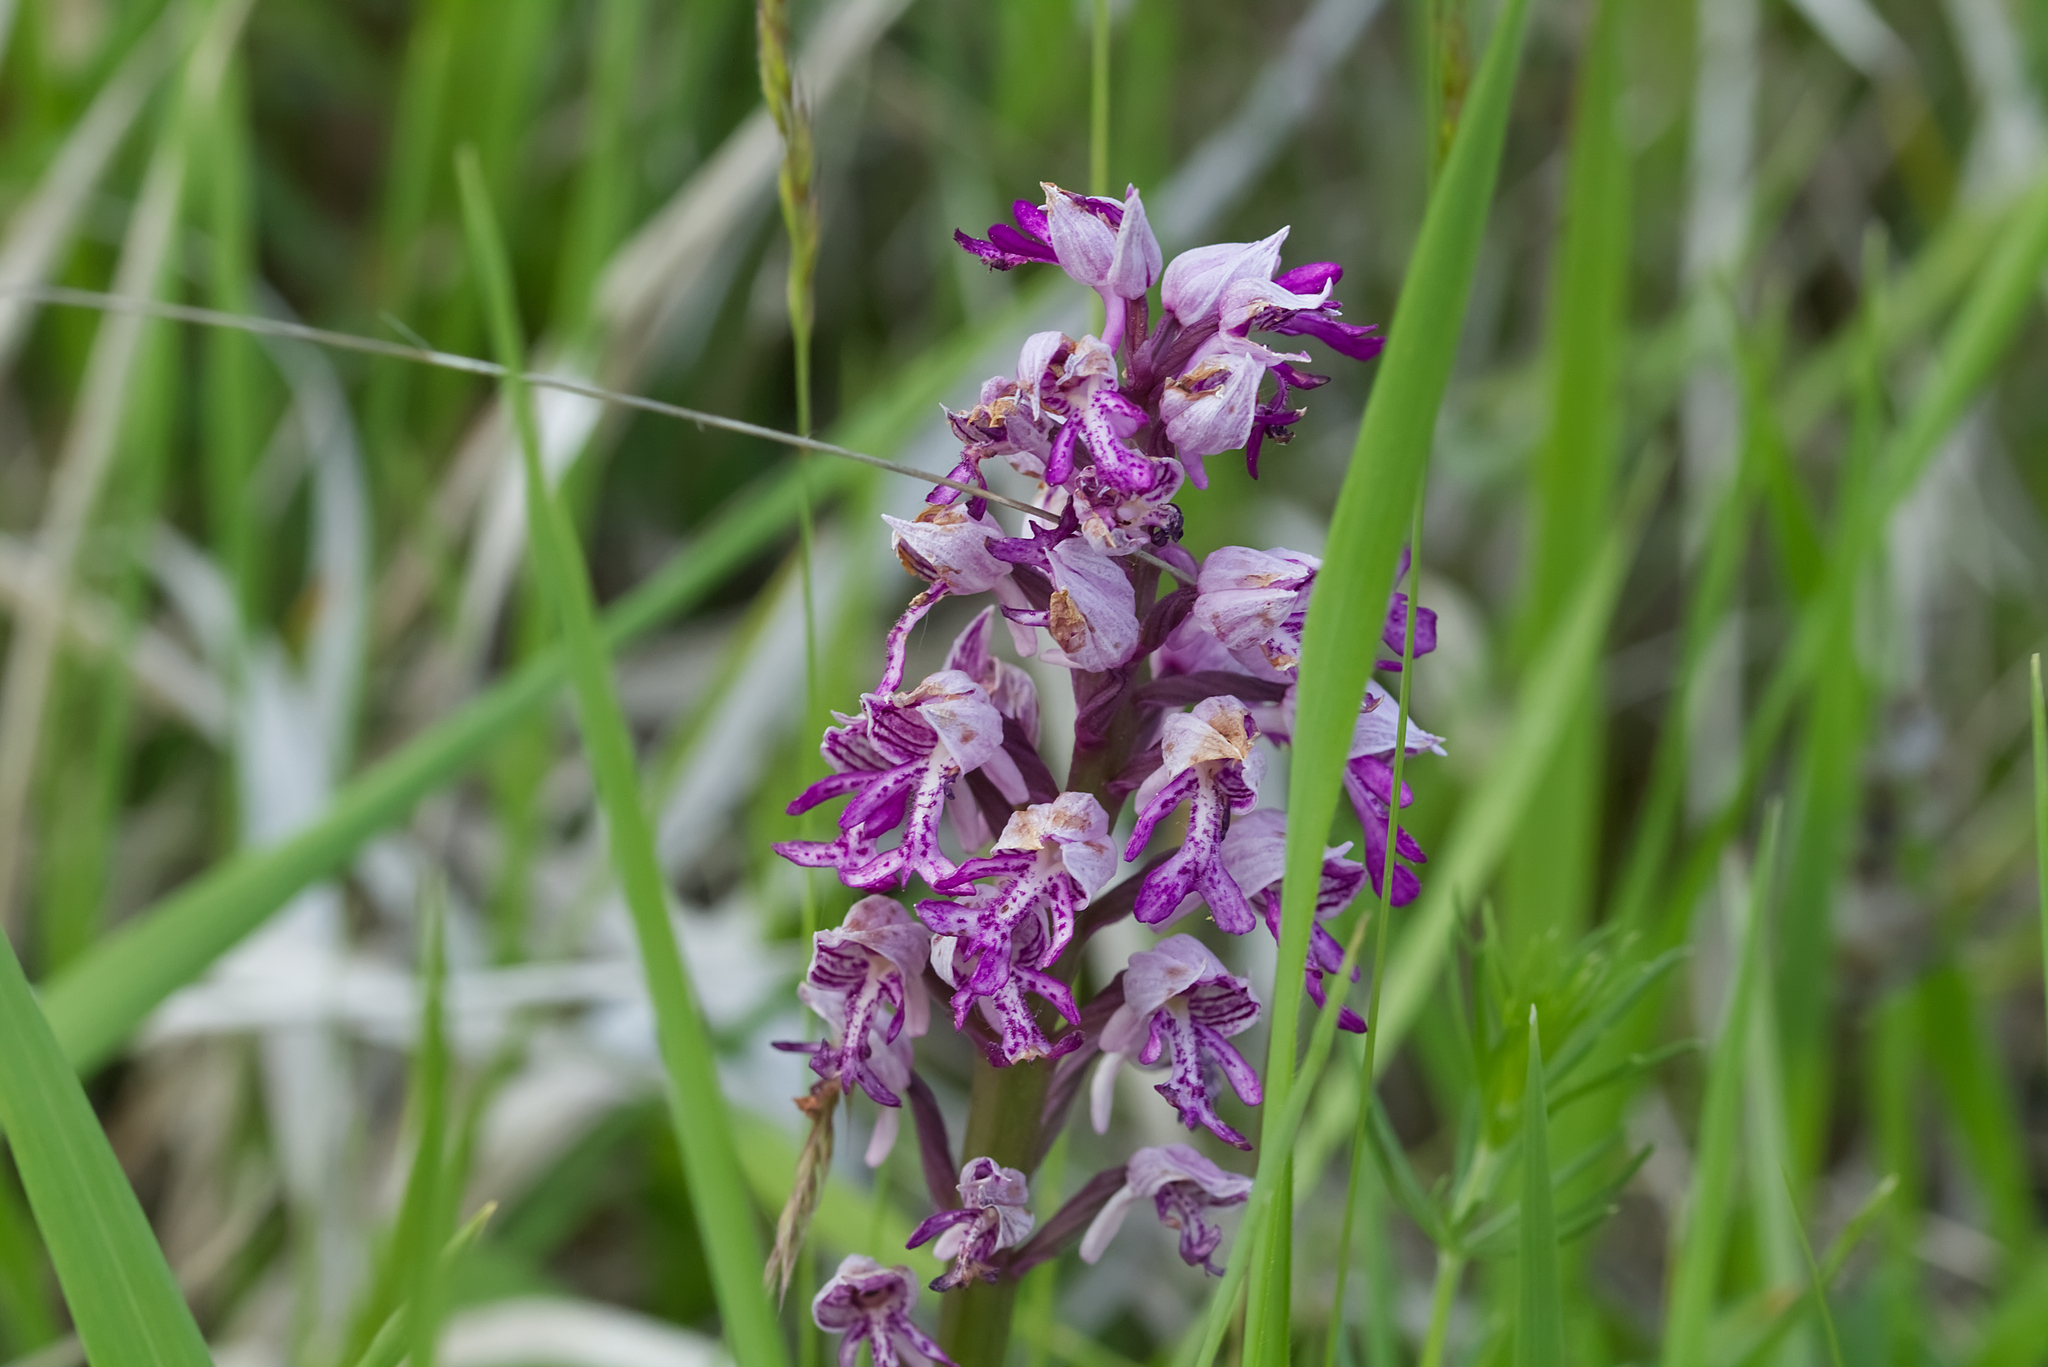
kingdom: Plantae
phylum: Tracheophyta
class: Liliopsida
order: Asparagales
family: Orchidaceae
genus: Orchis
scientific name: Orchis militaris
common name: Military orchid
